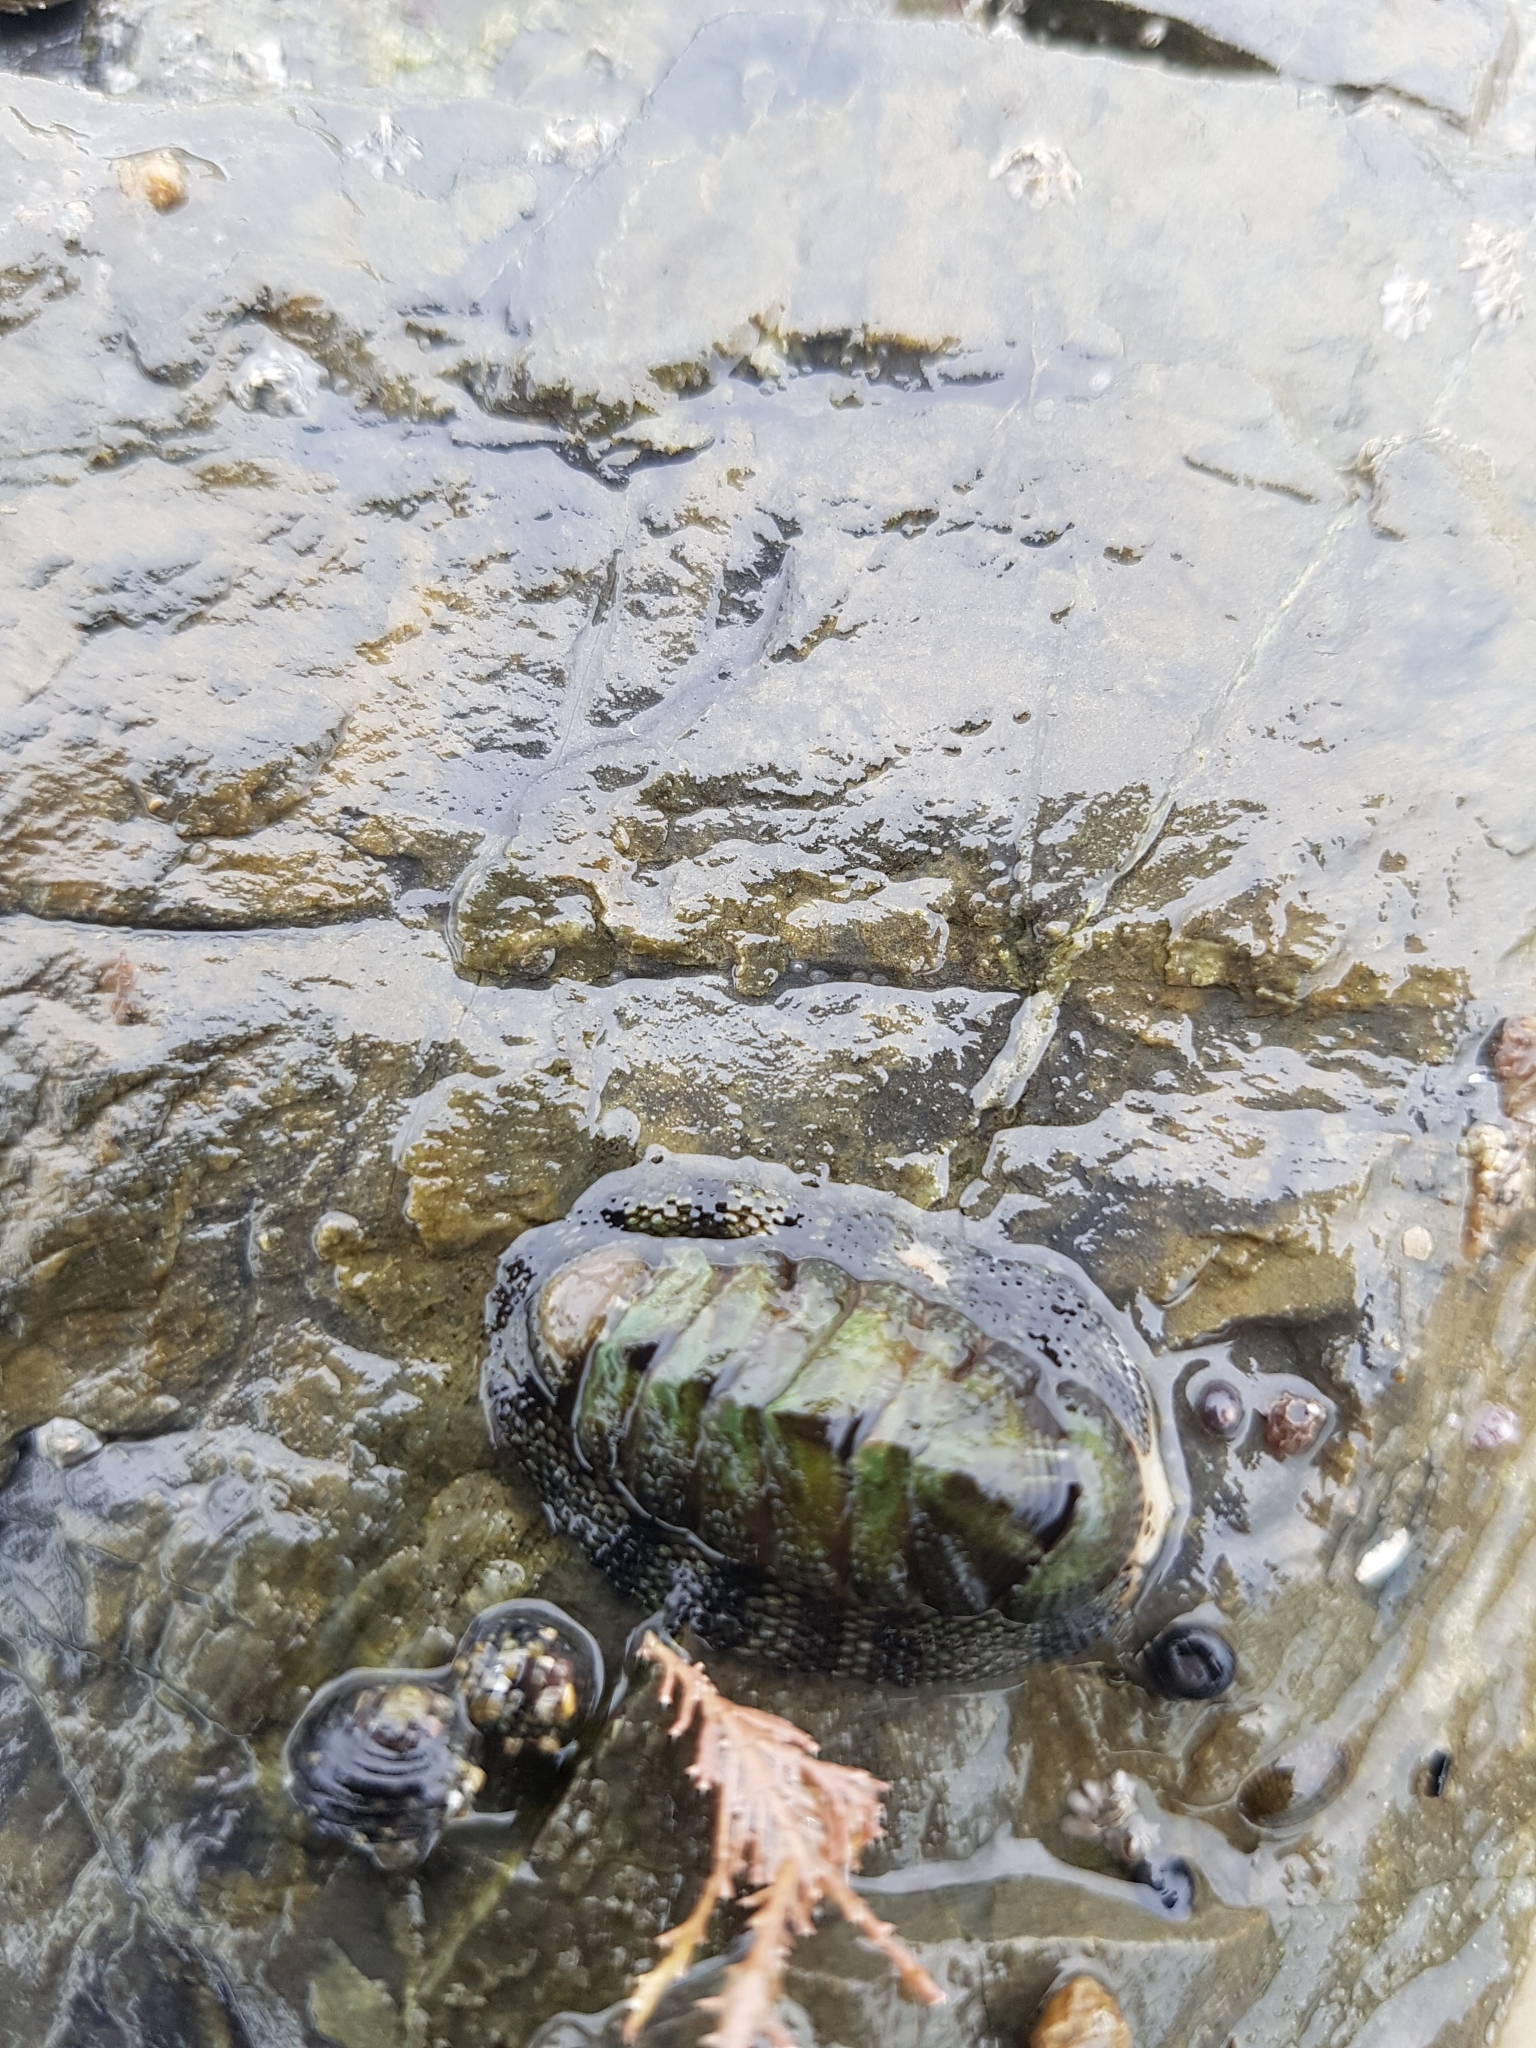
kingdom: Animalia
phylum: Mollusca
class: Polyplacophora
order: Chitonida
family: Chitonidae
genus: Sypharochiton
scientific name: Sypharochiton pelliserpentis
